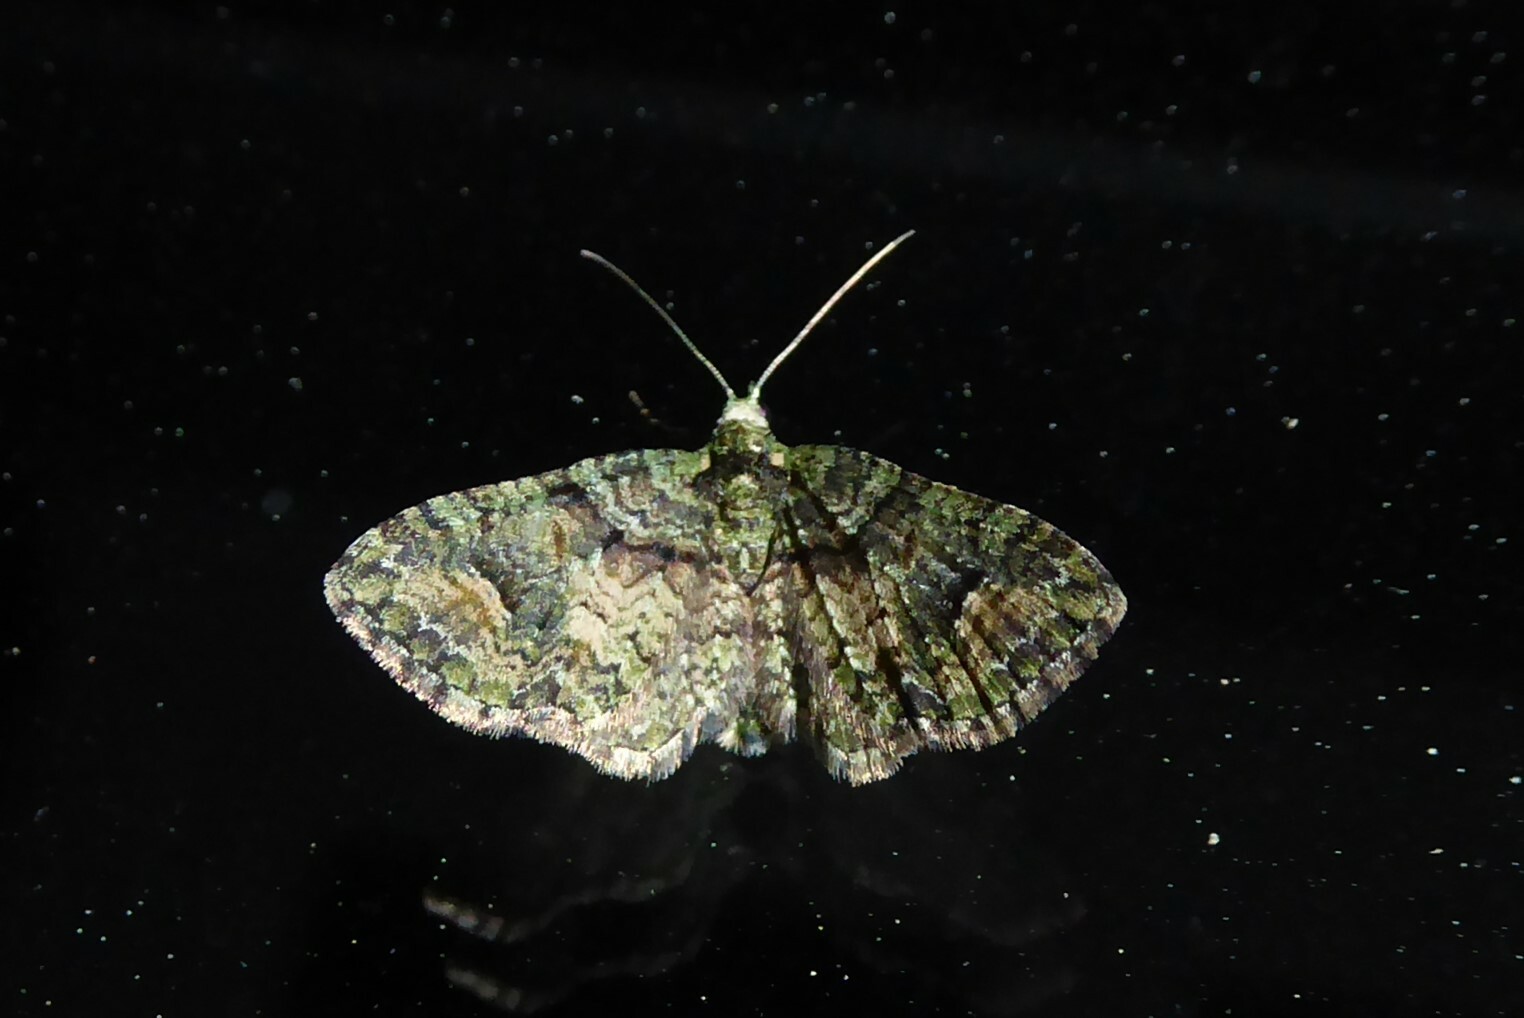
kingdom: Animalia
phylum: Arthropoda
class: Insecta
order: Lepidoptera
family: Geometridae
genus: Idaea
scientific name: Idaea mutanda
